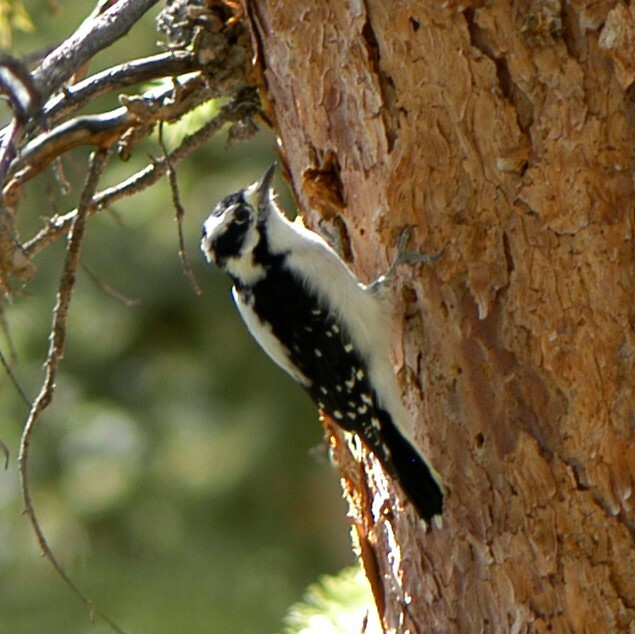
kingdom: Animalia
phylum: Chordata
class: Aves
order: Piciformes
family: Picidae
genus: Dryobates
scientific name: Dryobates pubescens
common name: Downy woodpecker
